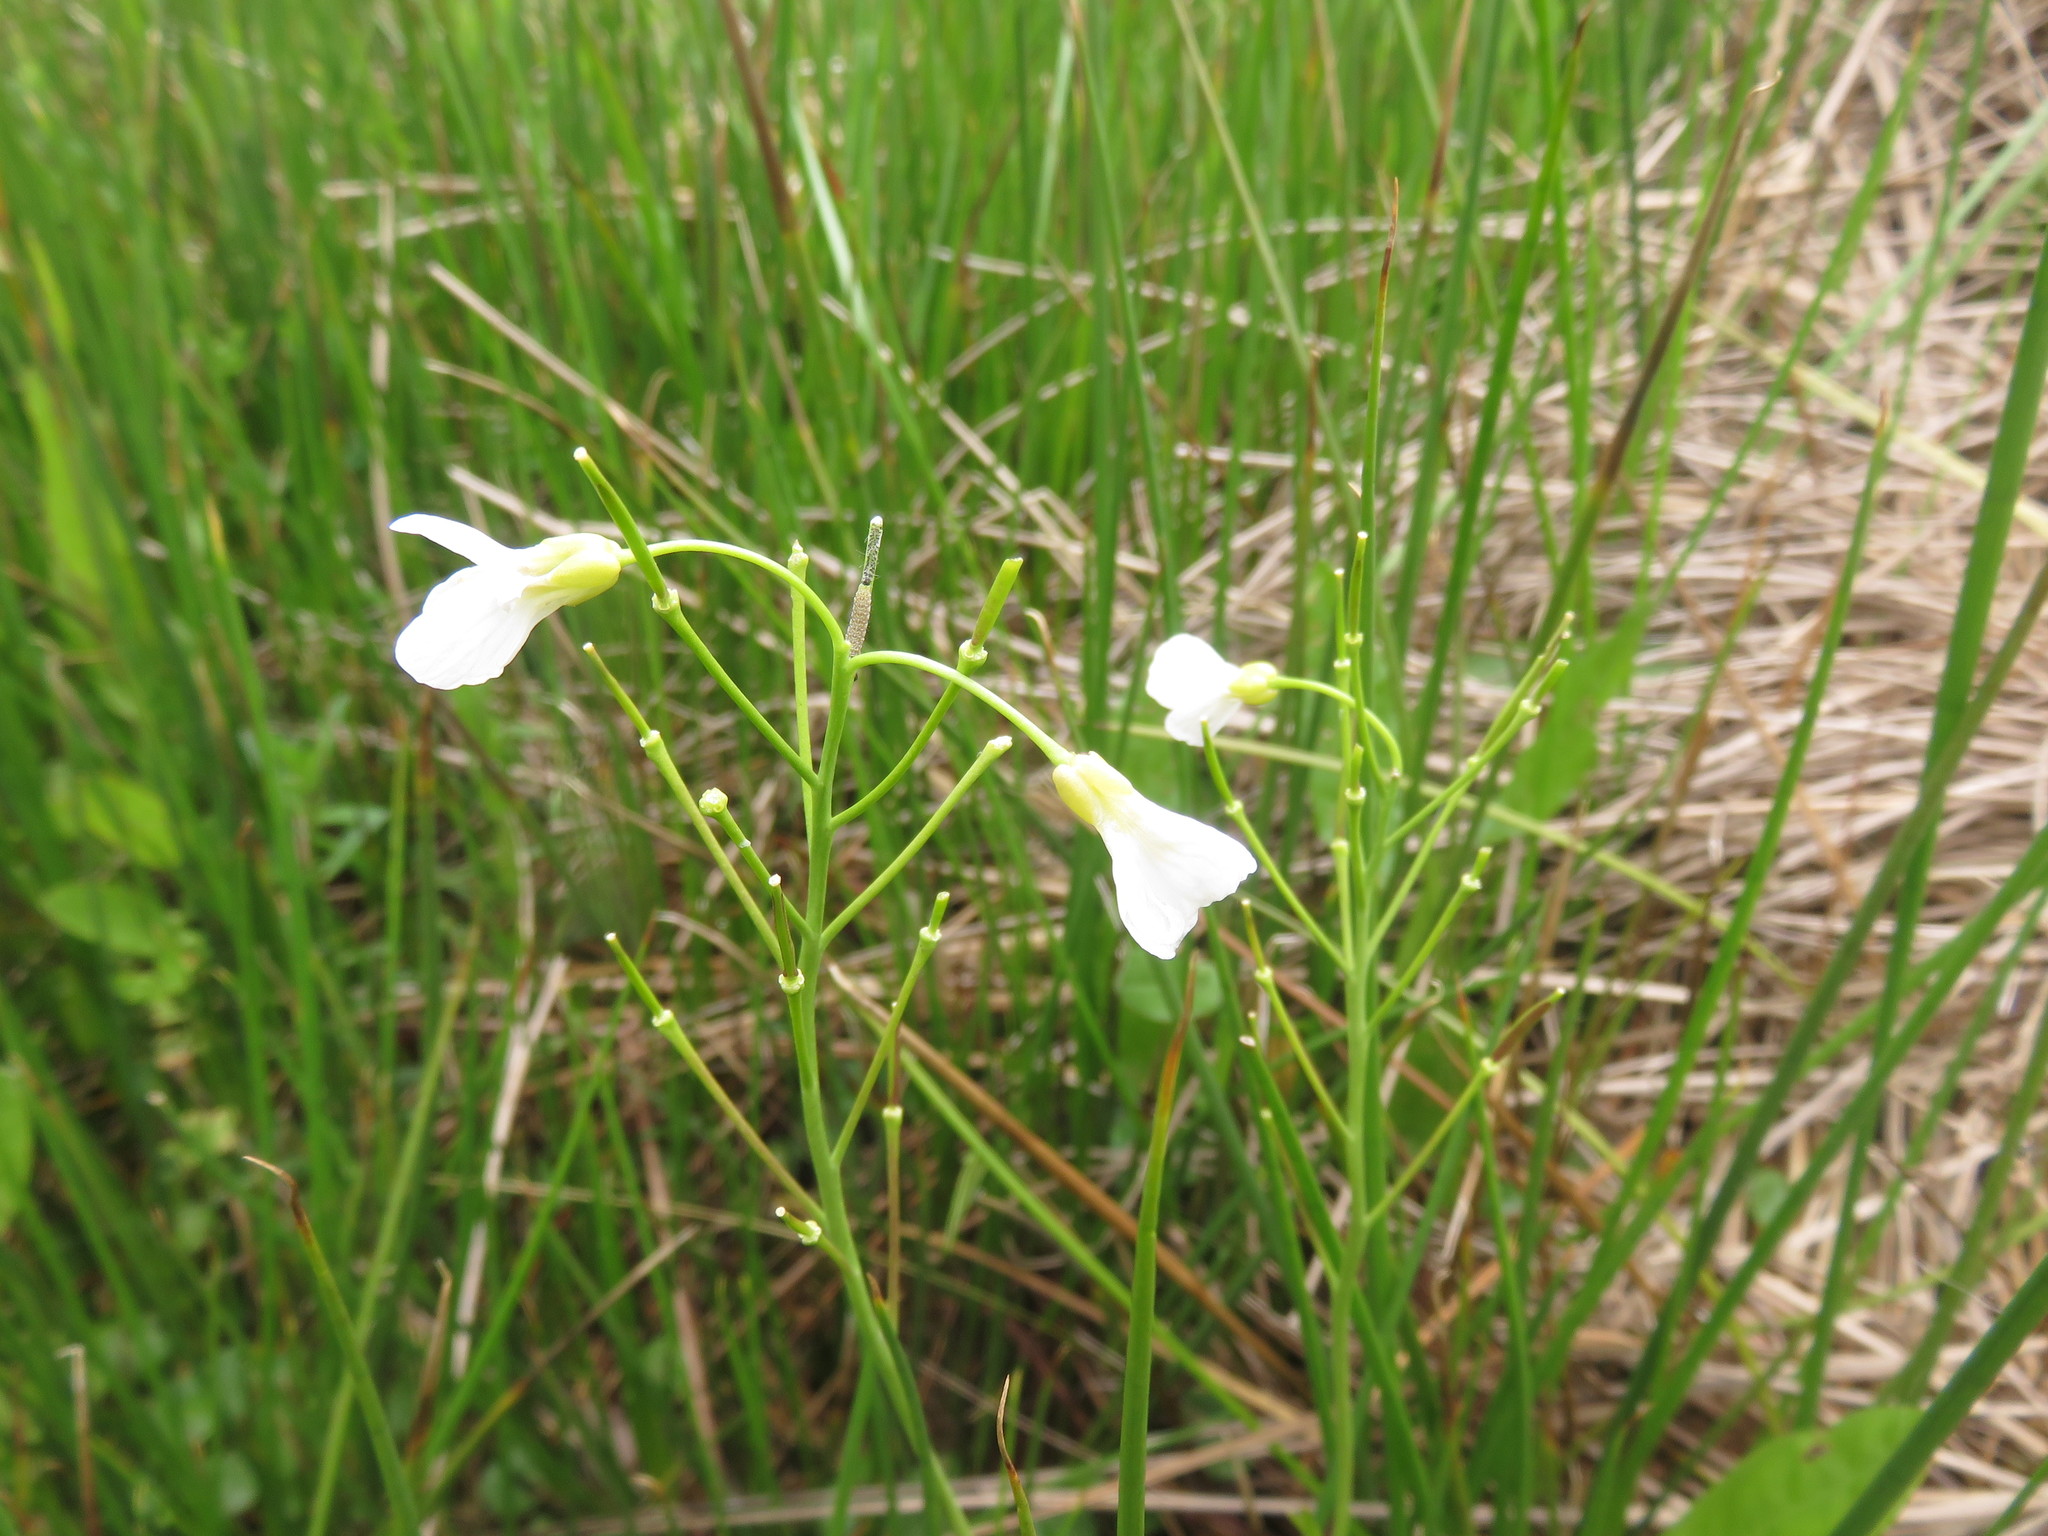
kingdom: Plantae
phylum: Tracheophyta
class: Magnoliopsida
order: Brassicales
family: Brassicaceae
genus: Cardamine
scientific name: Cardamine pratensis
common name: Cuckoo flower
